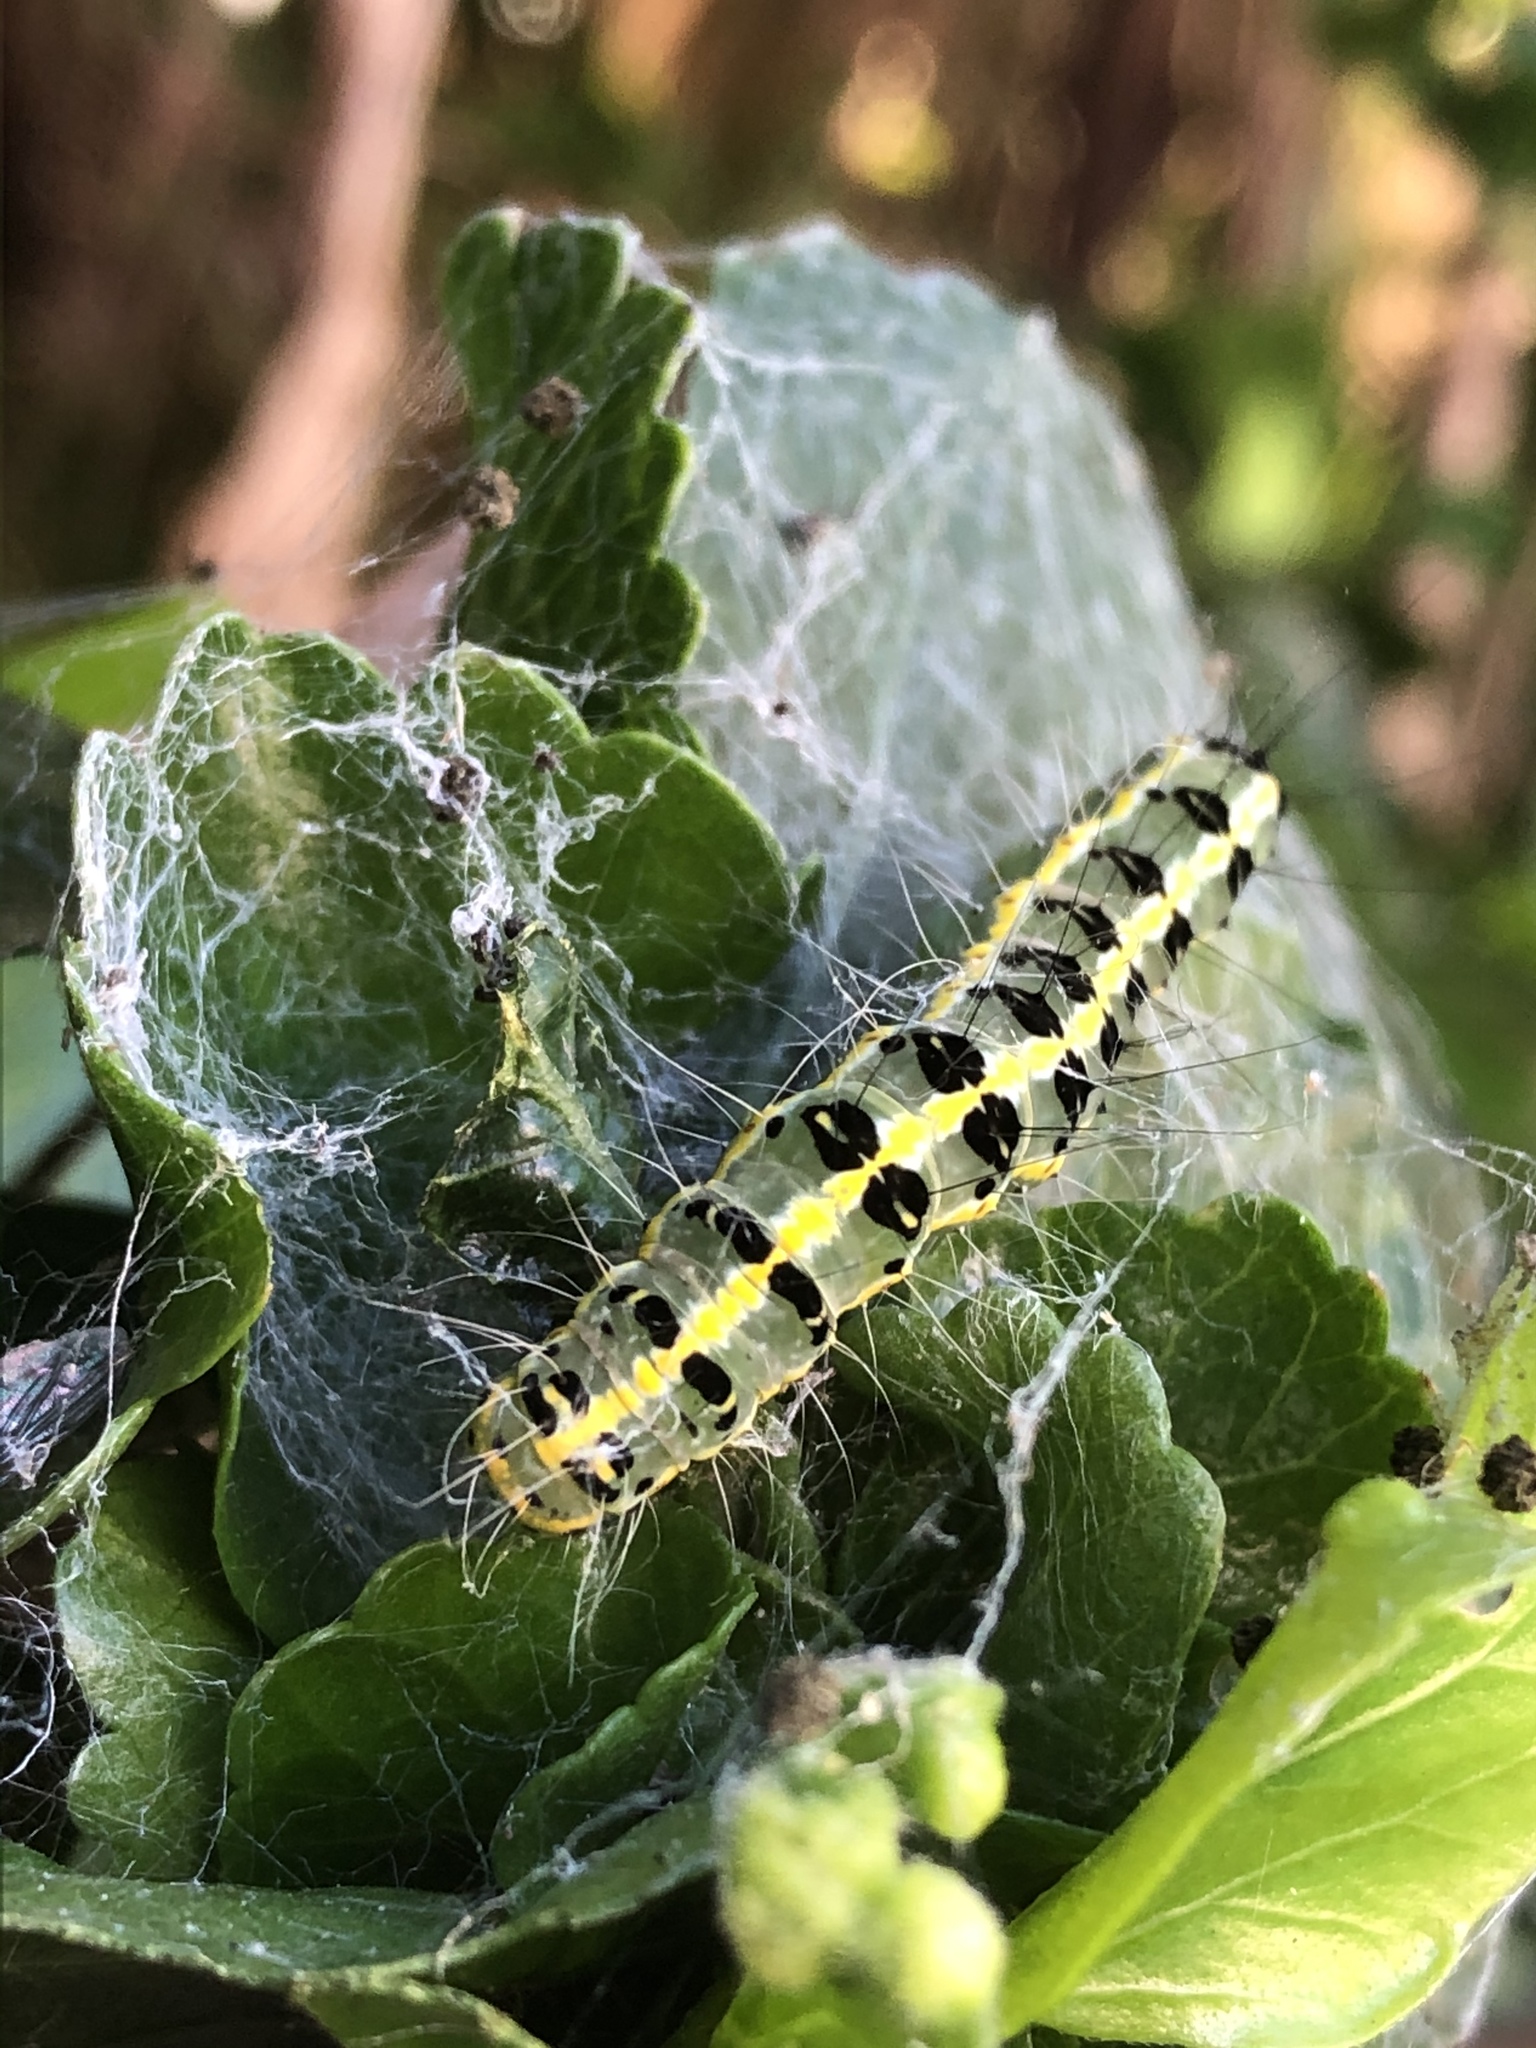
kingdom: Animalia
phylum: Arthropoda
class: Insecta
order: Lepidoptera
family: Nolidae
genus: Xanthodes
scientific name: Xanthodes transversa
